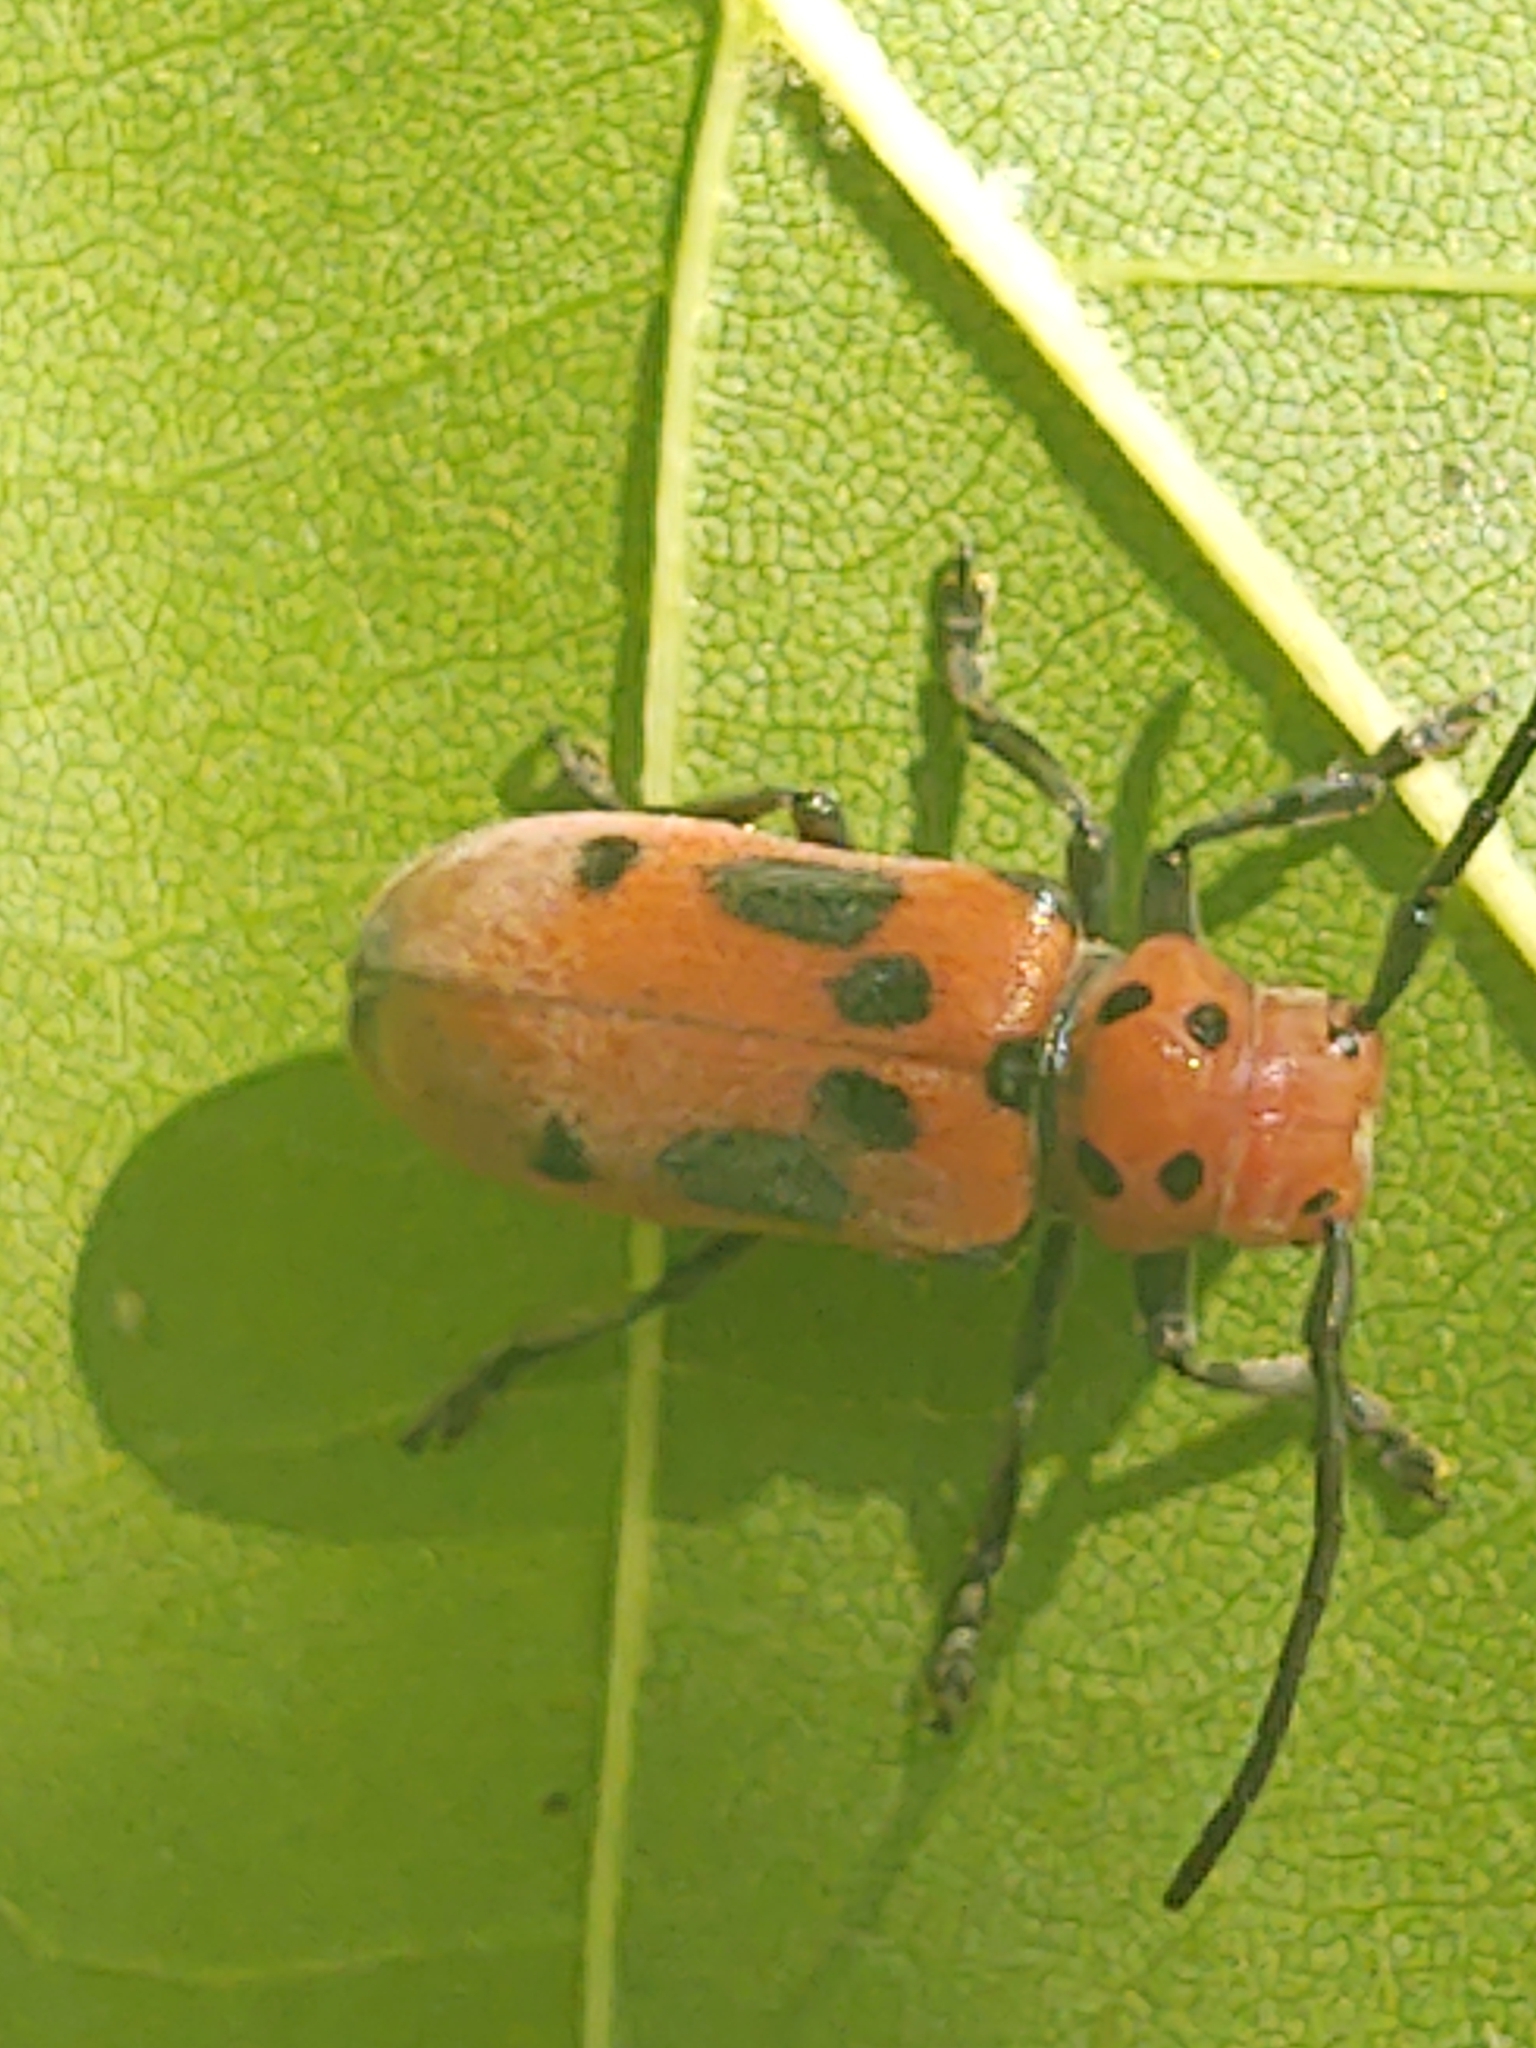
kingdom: Animalia
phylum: Arthropoda
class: Insecta
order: Coleoptera
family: Cerambycidae
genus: Tetraopes
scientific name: Tetraopes tetrophthalmus
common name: Red milkweed beetle
